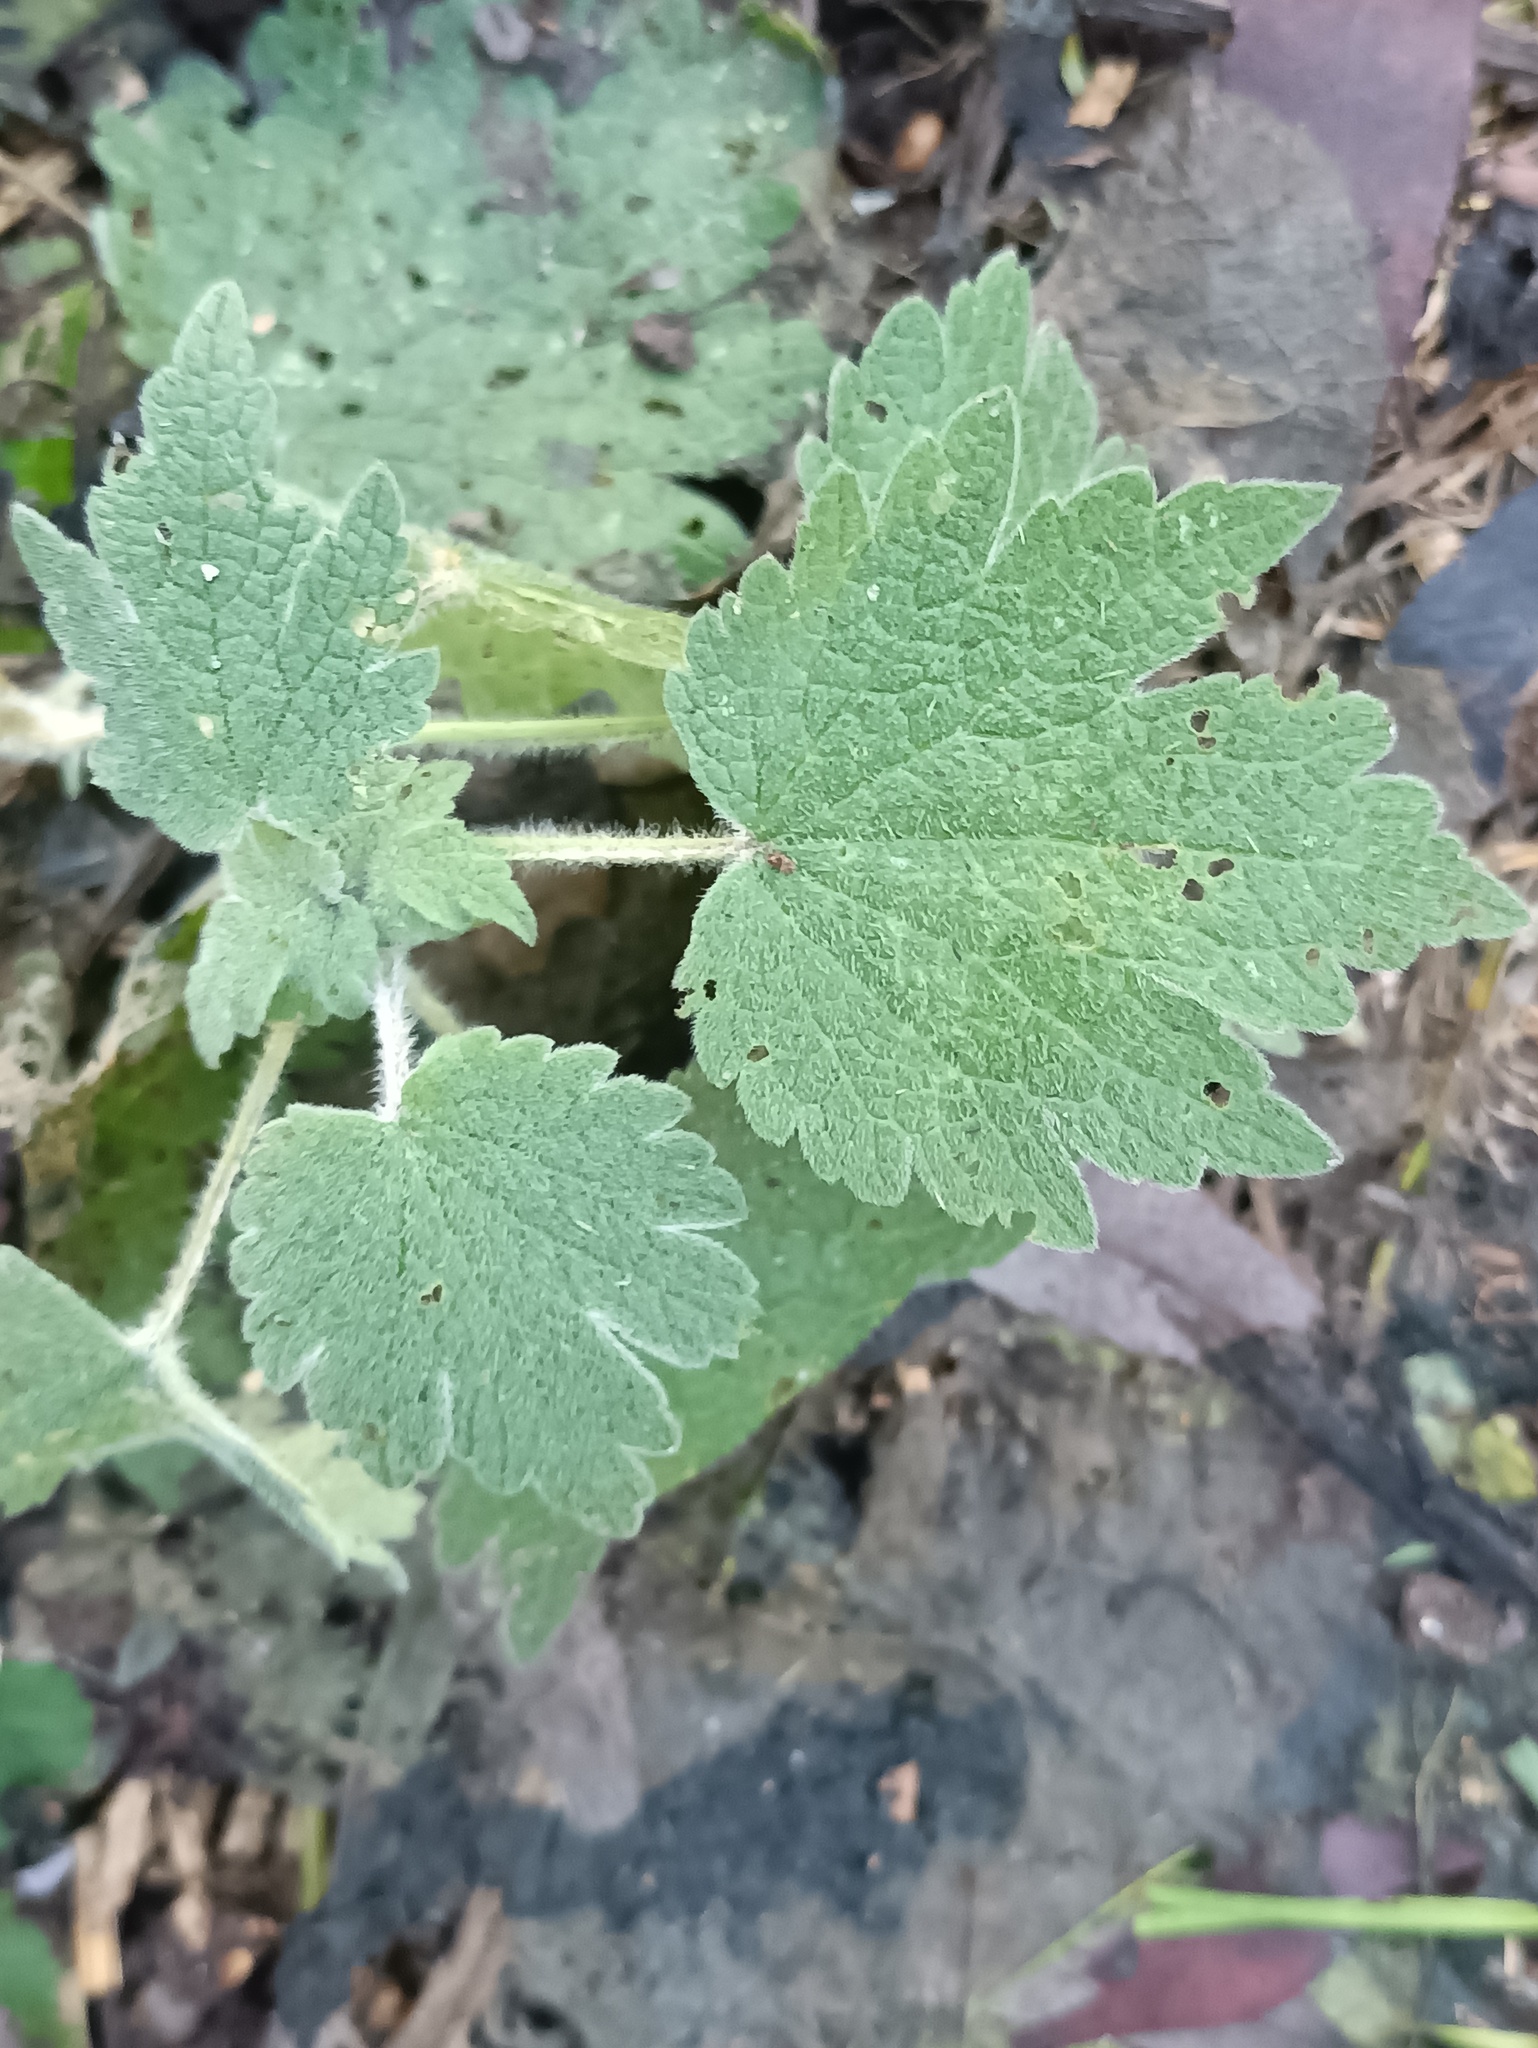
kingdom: Plantae
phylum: Tracheophyta
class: Magnoliopsida
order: Lamiales
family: Lamiaceae
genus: Leonurus
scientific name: Leonurus quinquelobatus
